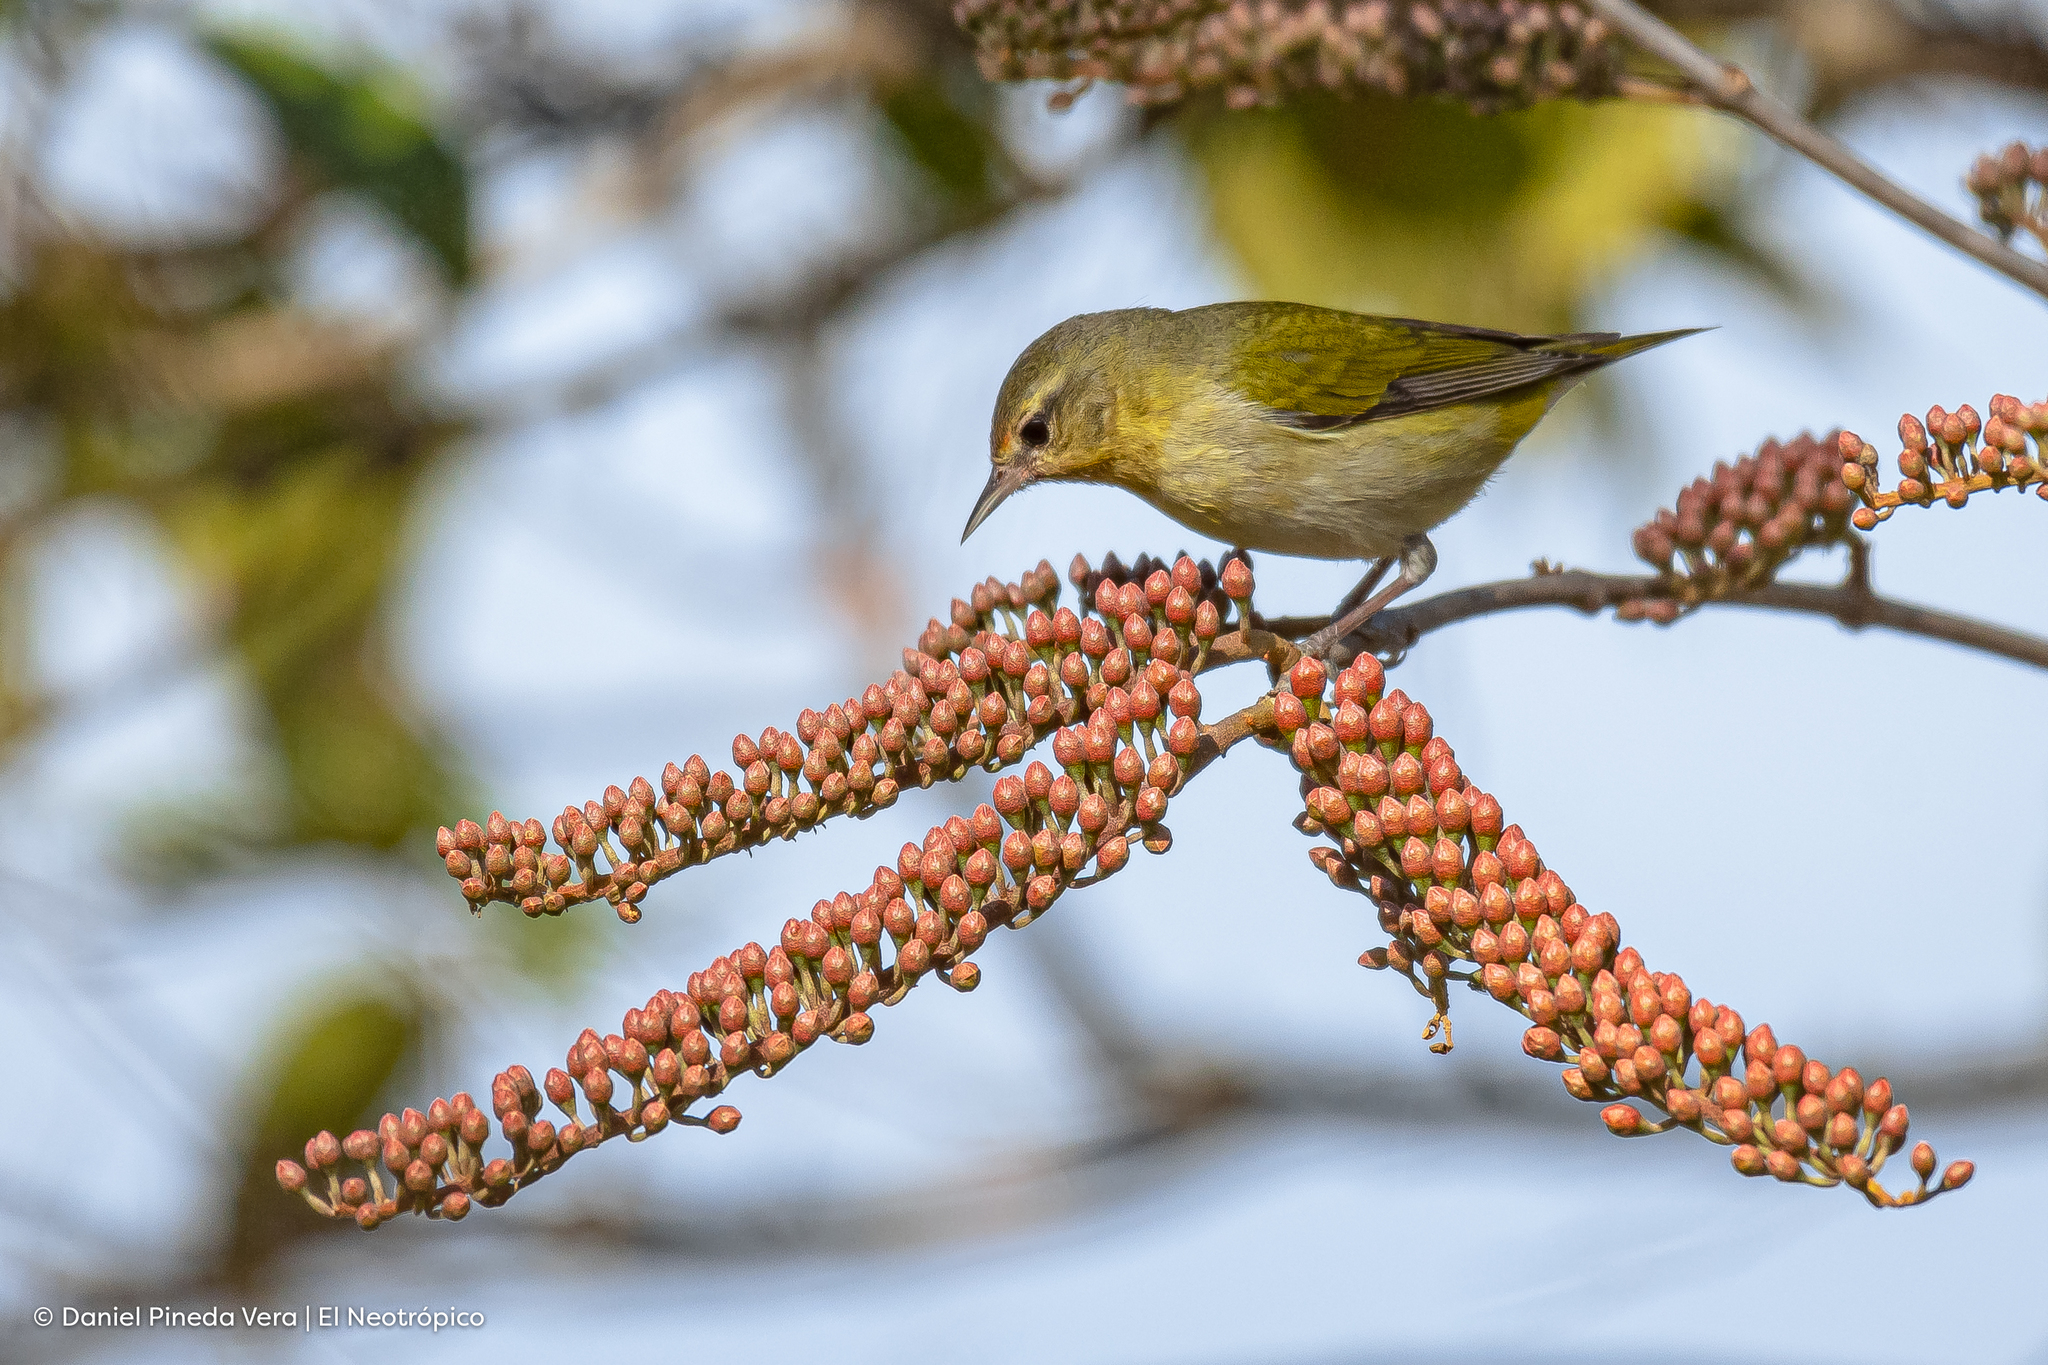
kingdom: Animalia
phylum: Chordata
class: Aves
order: Passeriformes
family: Parulidae
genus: Leiothlypis
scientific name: Leiothlypis peregrina
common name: Tennessee warbler
